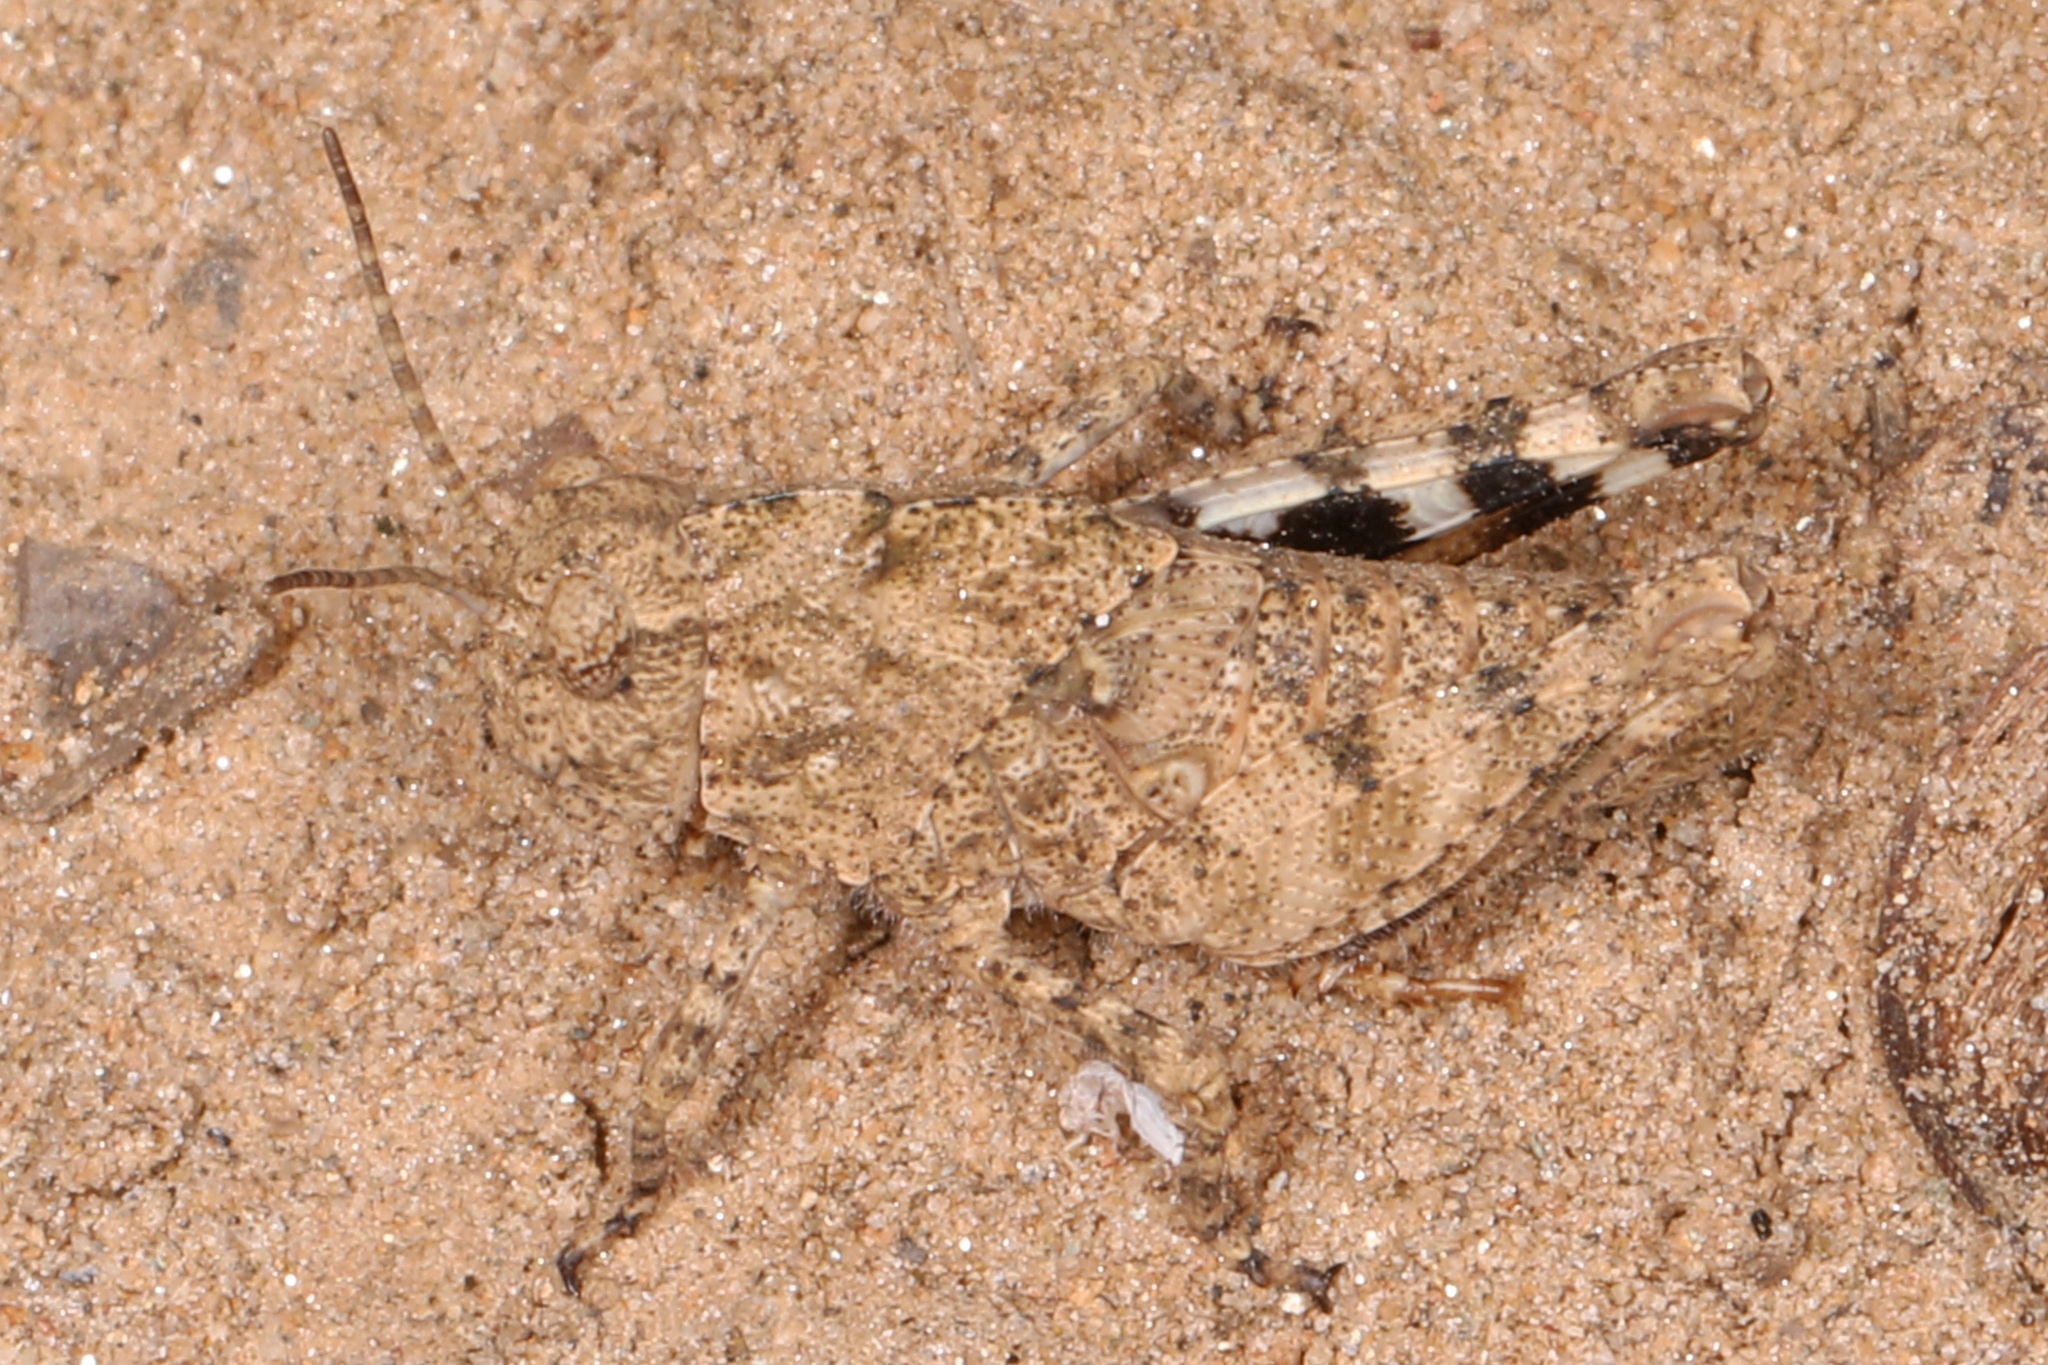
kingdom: Animalia
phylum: Arthropoda
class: Insecta
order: Orthoptera
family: Acrididae
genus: Dissosteira
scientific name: Dissosteira carolina
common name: Carolina grasshopper
